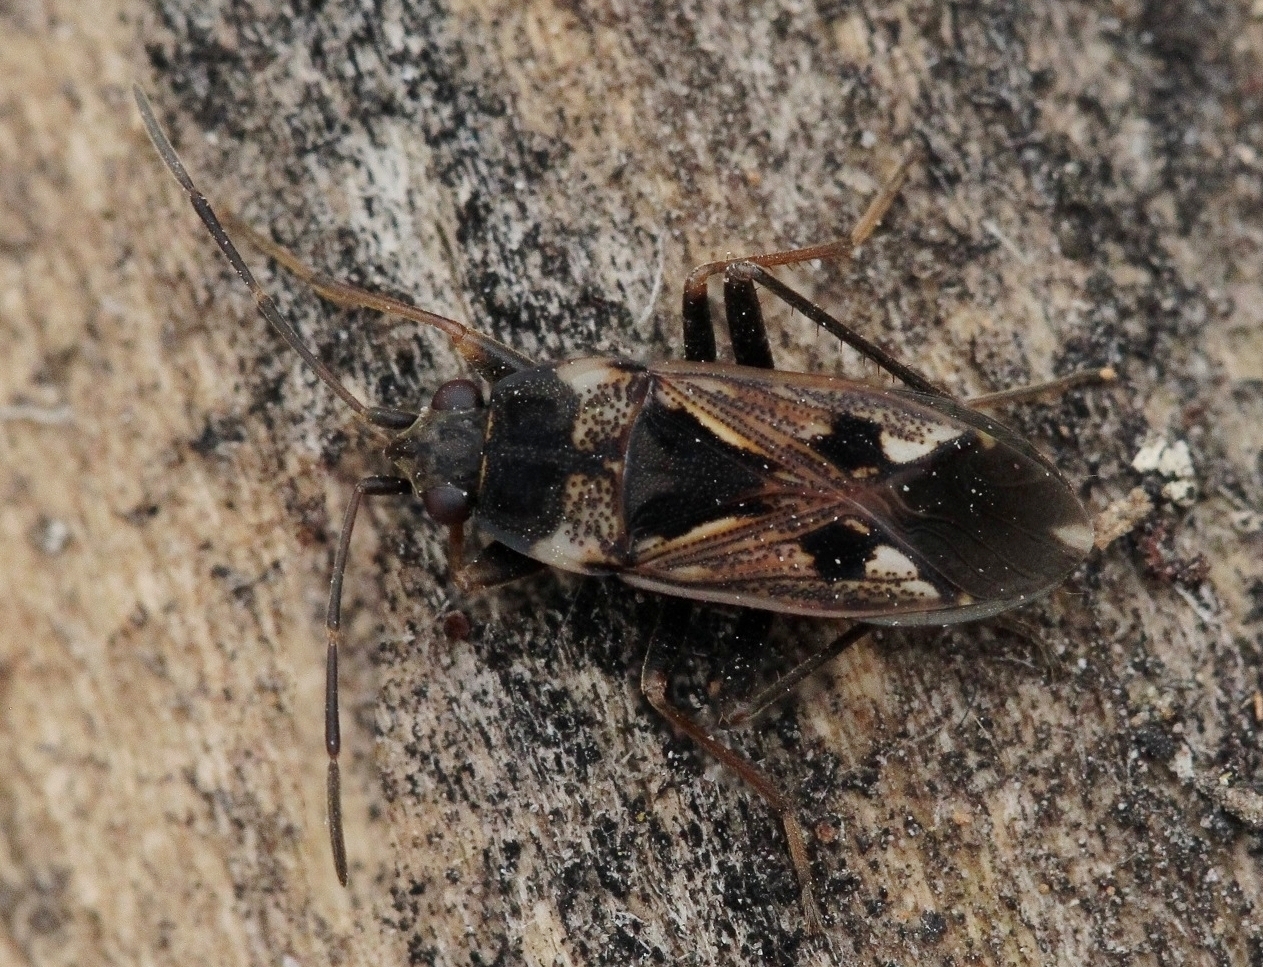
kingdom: Animalia
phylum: Arthropoda
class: Insecta
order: Hemiptera
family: Rhyparochromidae
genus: Rhyparochromus
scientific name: Rhyparochromus vulgaris
